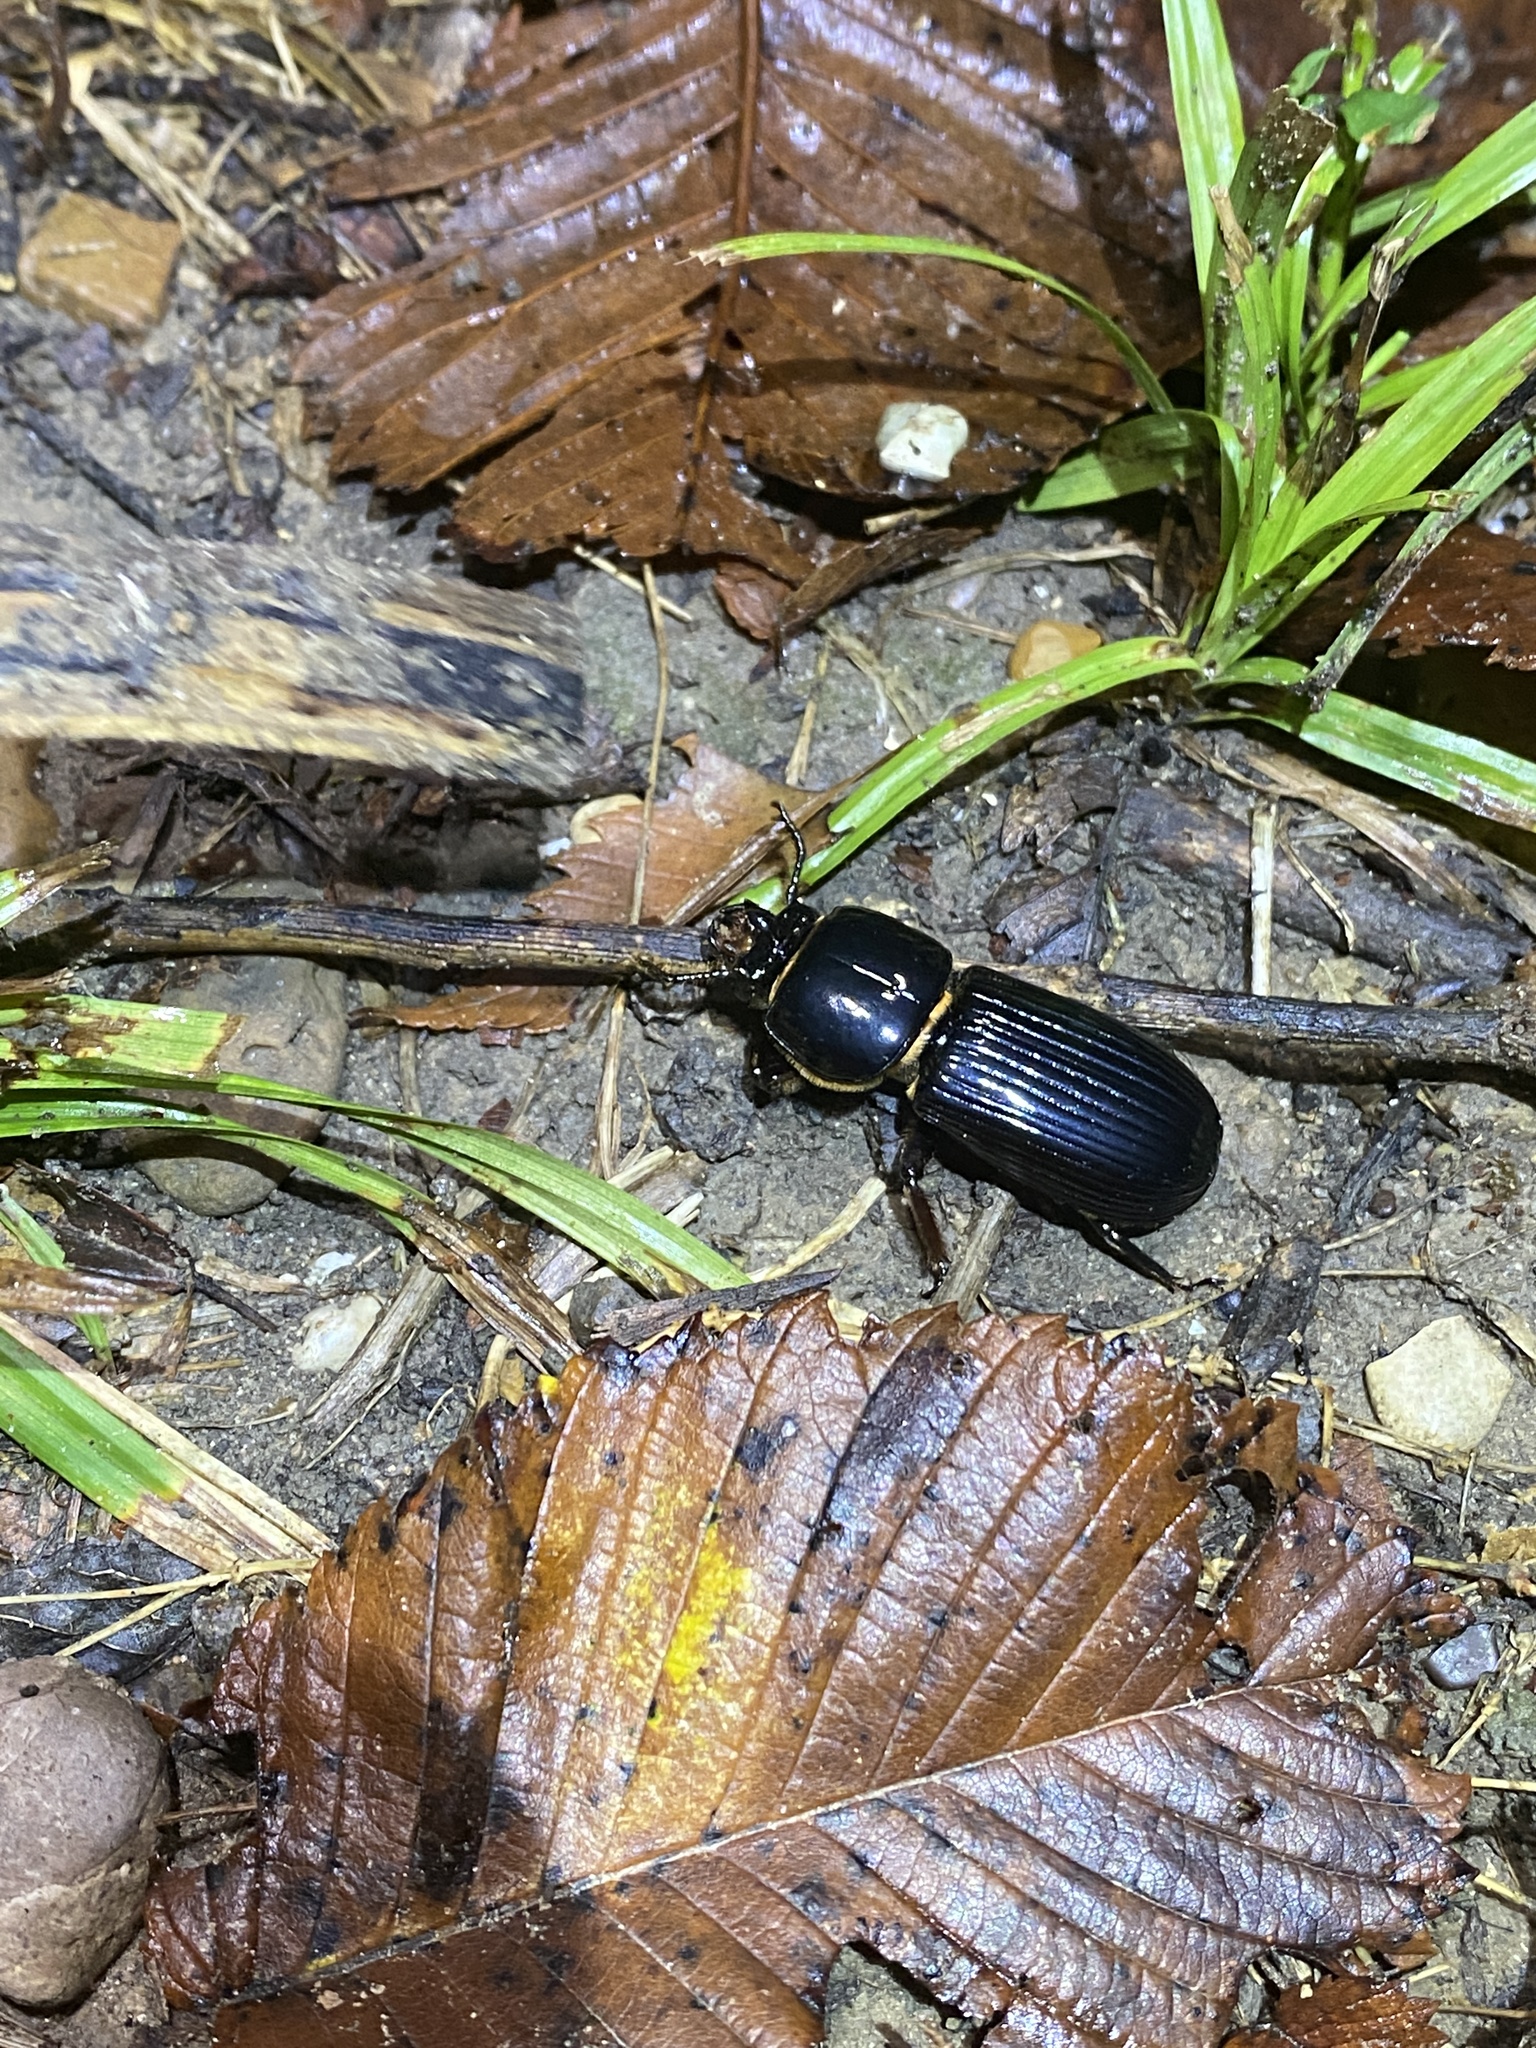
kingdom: Animalia
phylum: Arthropoda
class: Insecta
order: Coleoptera
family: Passalidae
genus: Odontotaenius
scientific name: Odontotaenius disjunctus
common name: Patent leather beetle
